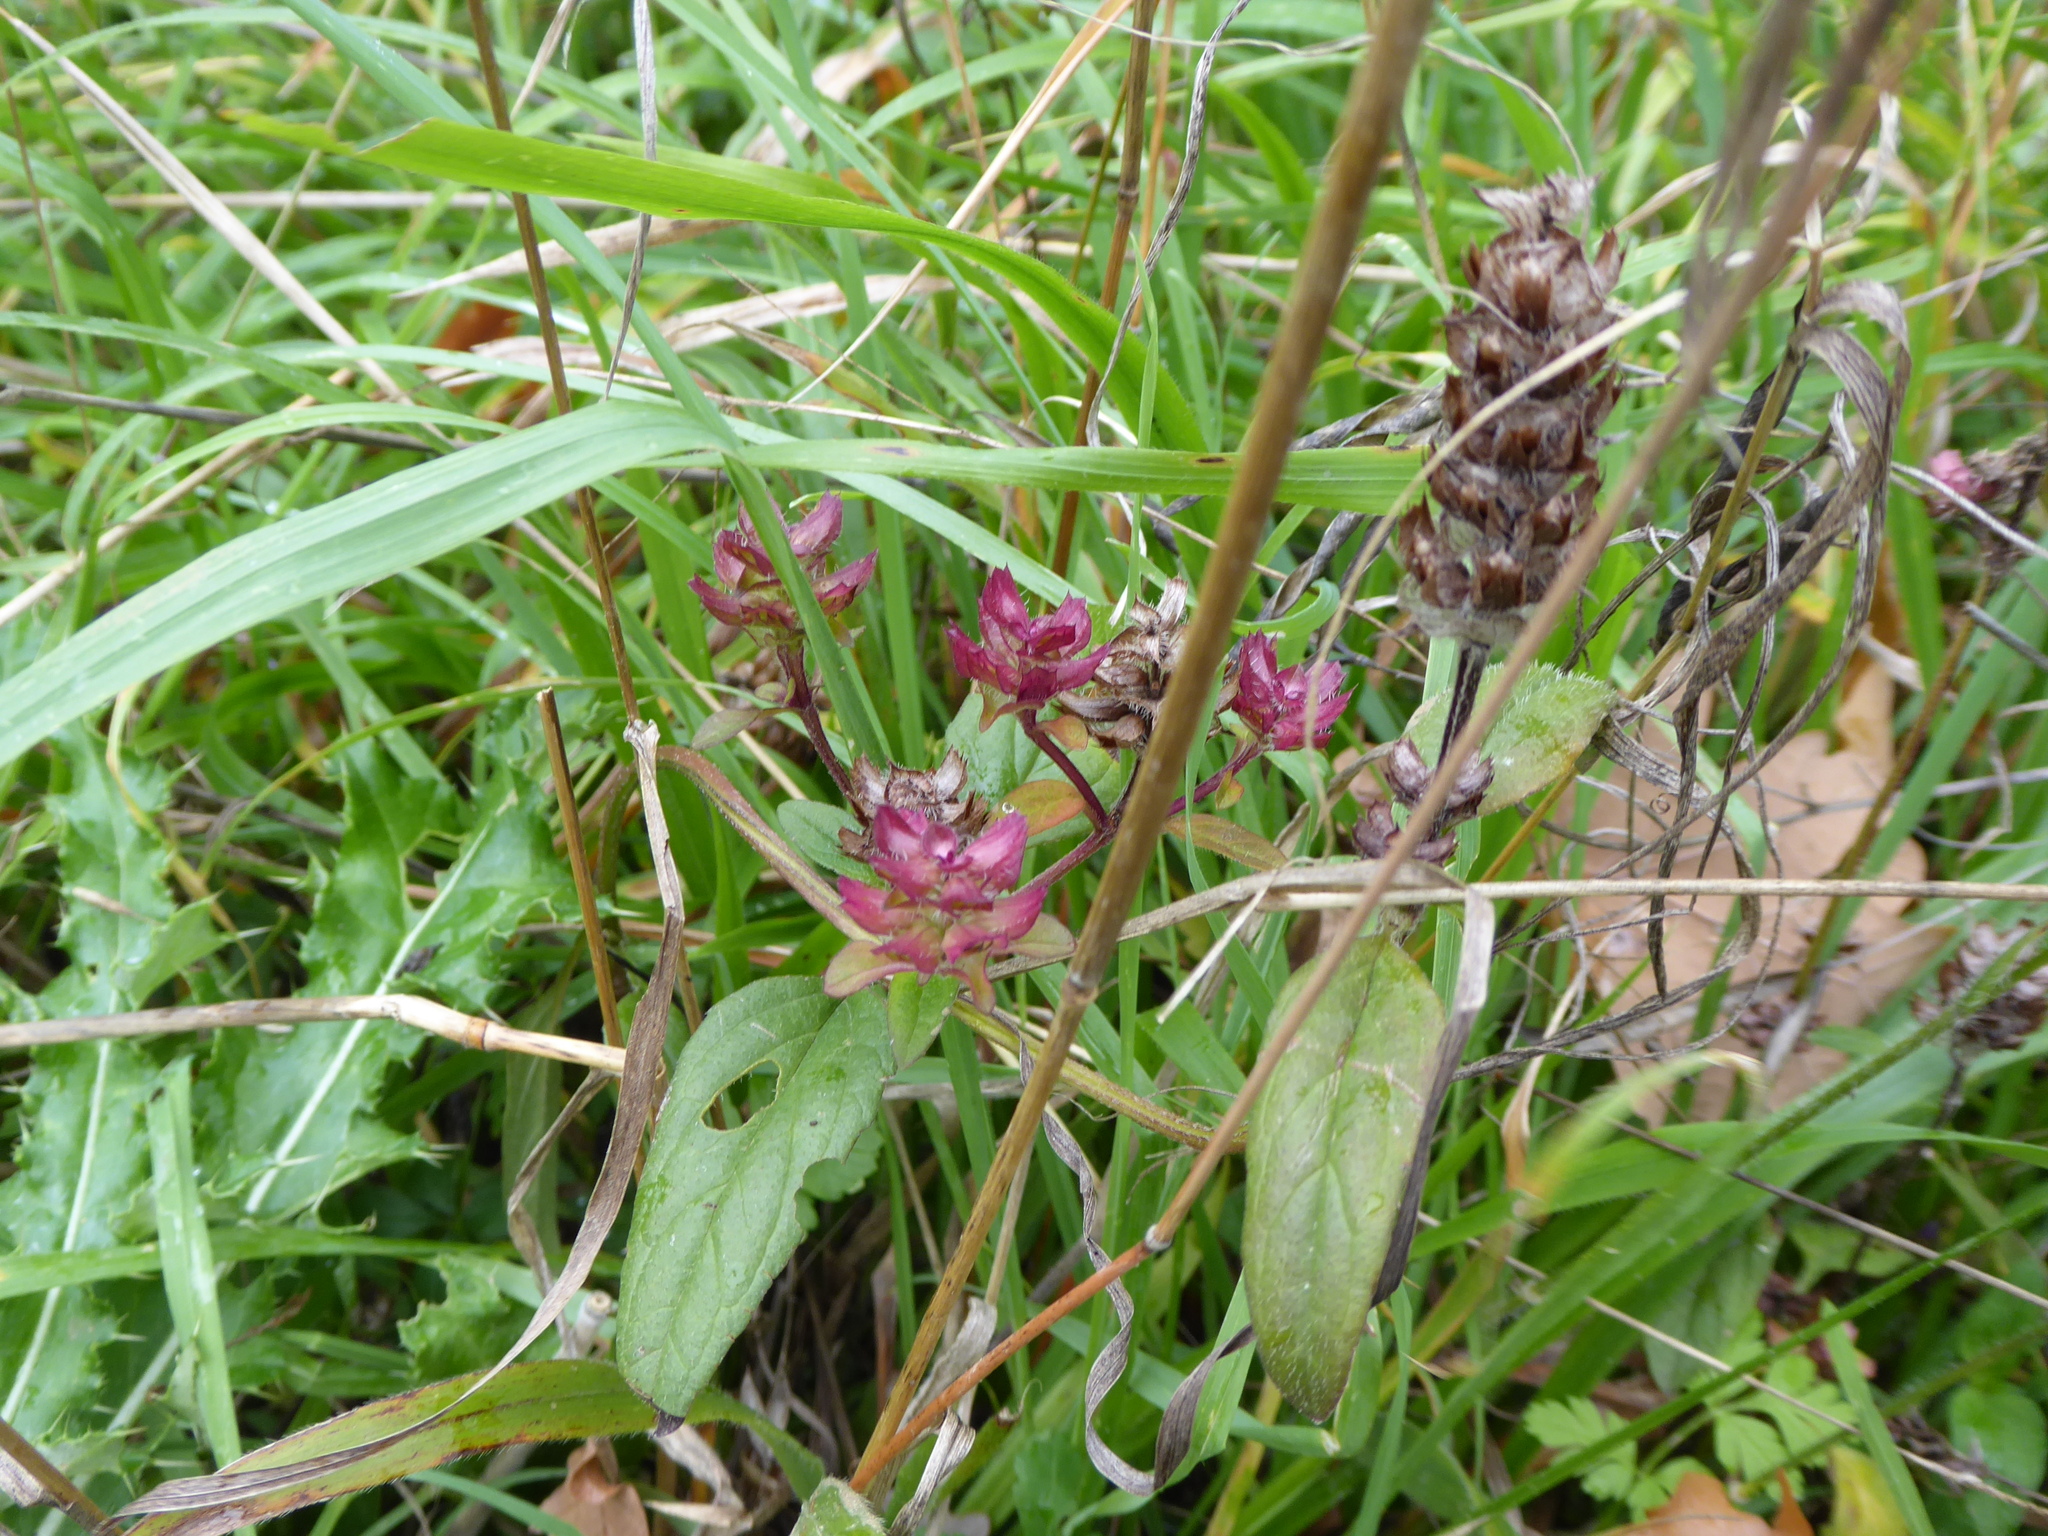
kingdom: Plantae
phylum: Tracheophyta
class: Magnoliopsida
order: Lamiales
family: Lamiaceae
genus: Prunella
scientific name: Prunella vulgaris
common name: Heal-all
